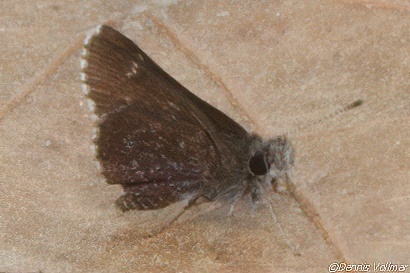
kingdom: Animalia
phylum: Arthropoda
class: Insecta
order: Lepidoptera
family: Hesperiidae
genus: Mastor
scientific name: Mastor alternata
